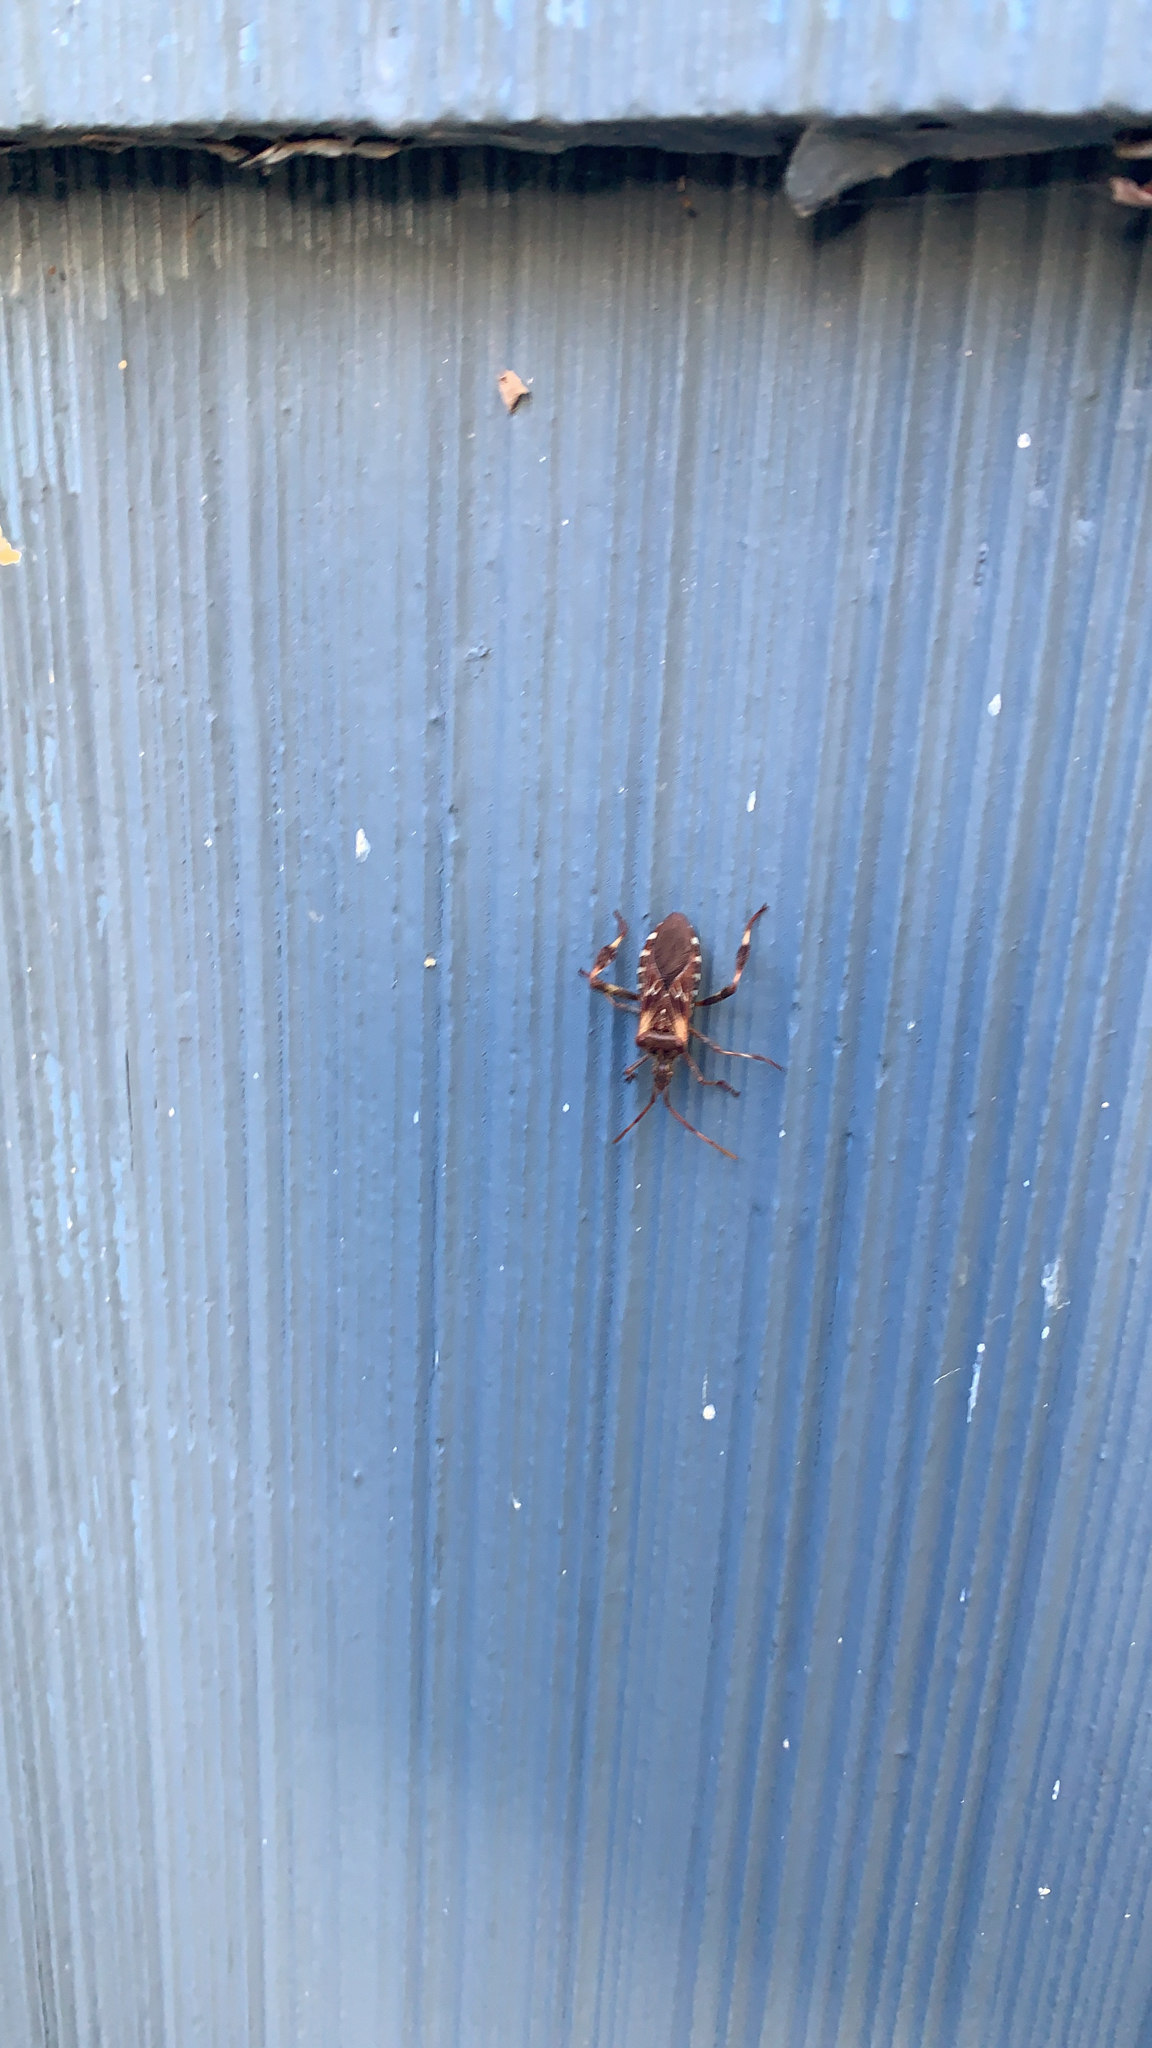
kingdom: Animalia
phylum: Arthropoda
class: Insecta
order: Hemiptera
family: Coreidae
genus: Leptoglossus
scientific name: Leptoglossus occidentalis
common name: Western conifer-seed bug
